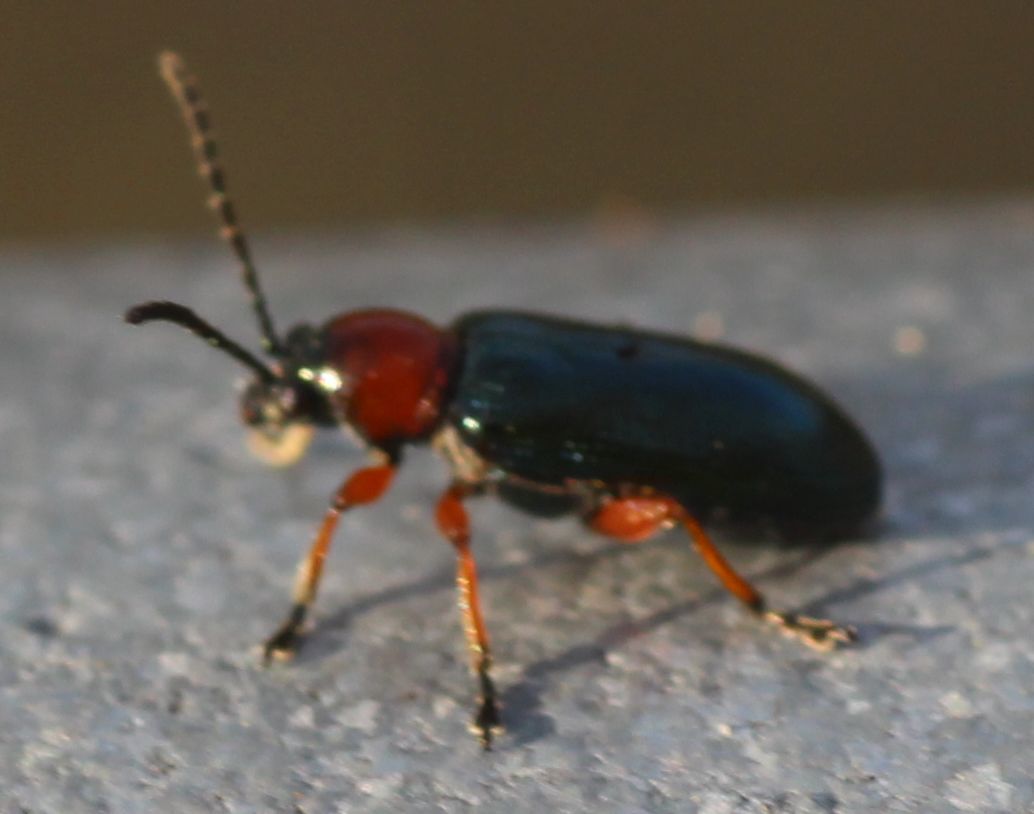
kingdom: Animalia
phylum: Arthropoda
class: Insecta
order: Coleoptera
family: Chrysomelidae
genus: Oulema
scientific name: Oulema
